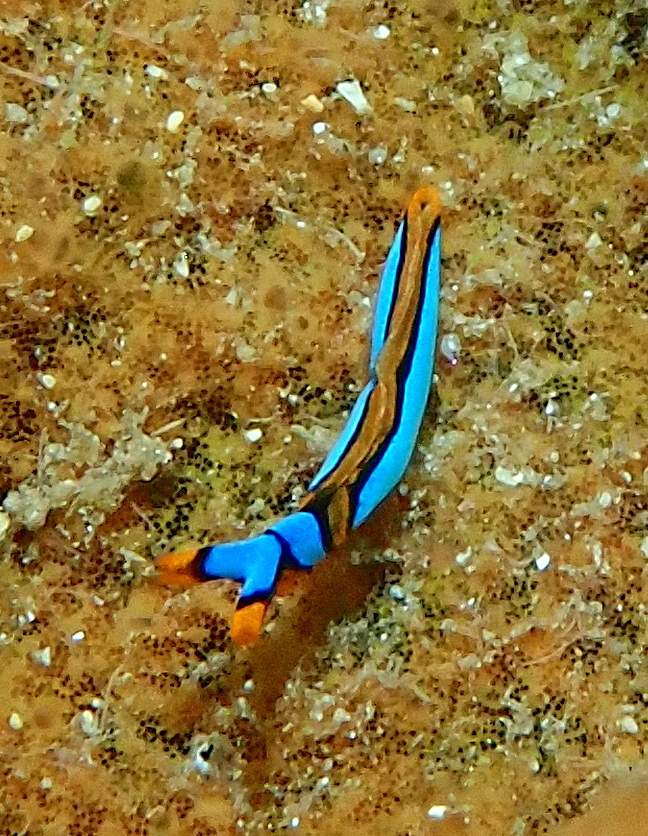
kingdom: Animalia
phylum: Mollusca
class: Gastropoda
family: Plakobranchidae
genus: Thuridilla
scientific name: Thuridilla lineolata
